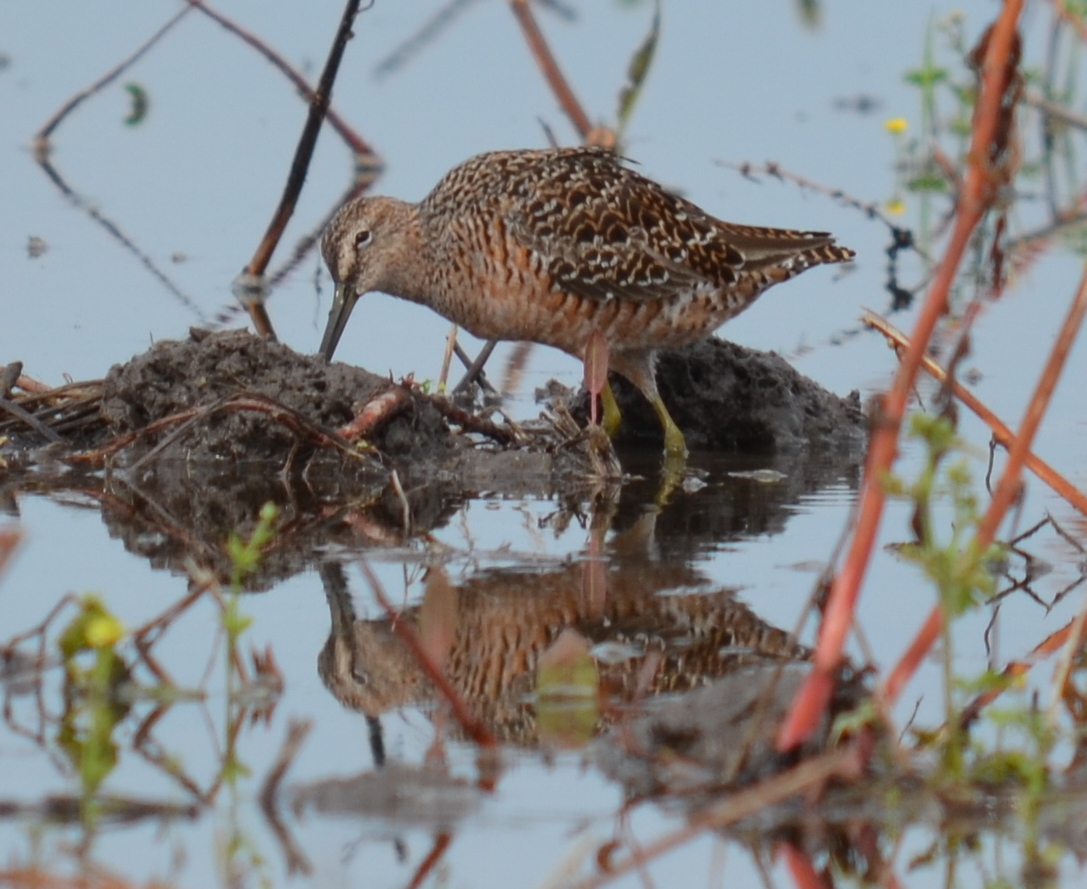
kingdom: Animalia
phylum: Chordata
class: Aves
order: Charadriiformes
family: Scolopacidae
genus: Limnodromus
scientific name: Limnodromus scolopaceus
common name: Long-billed dowitcher
